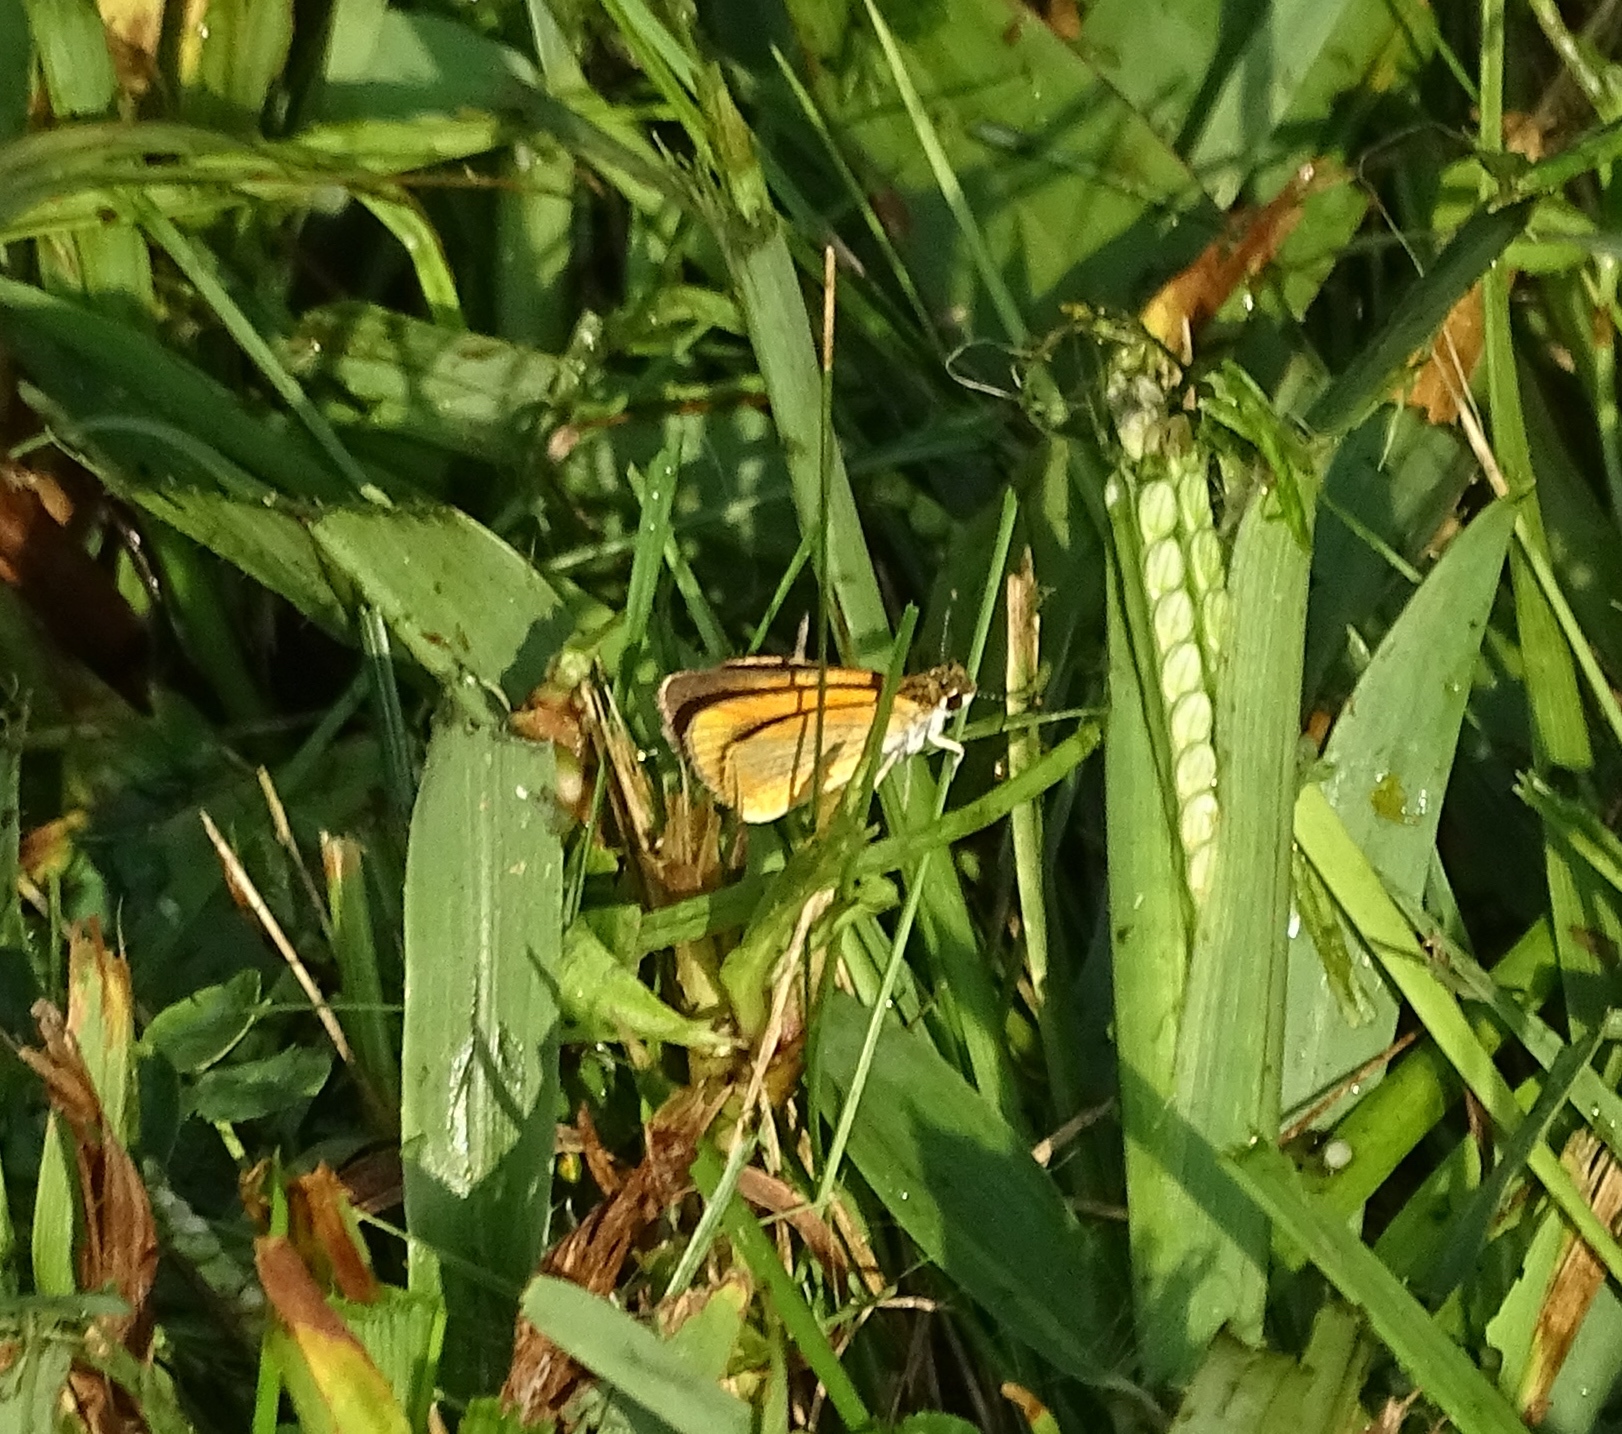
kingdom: Animalia
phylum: Arthropoda
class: Insecta
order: Lepidoptera
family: Hesperiidae
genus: Ancyloxypha
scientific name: Ancyloxypha numitor
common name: Least skipper
